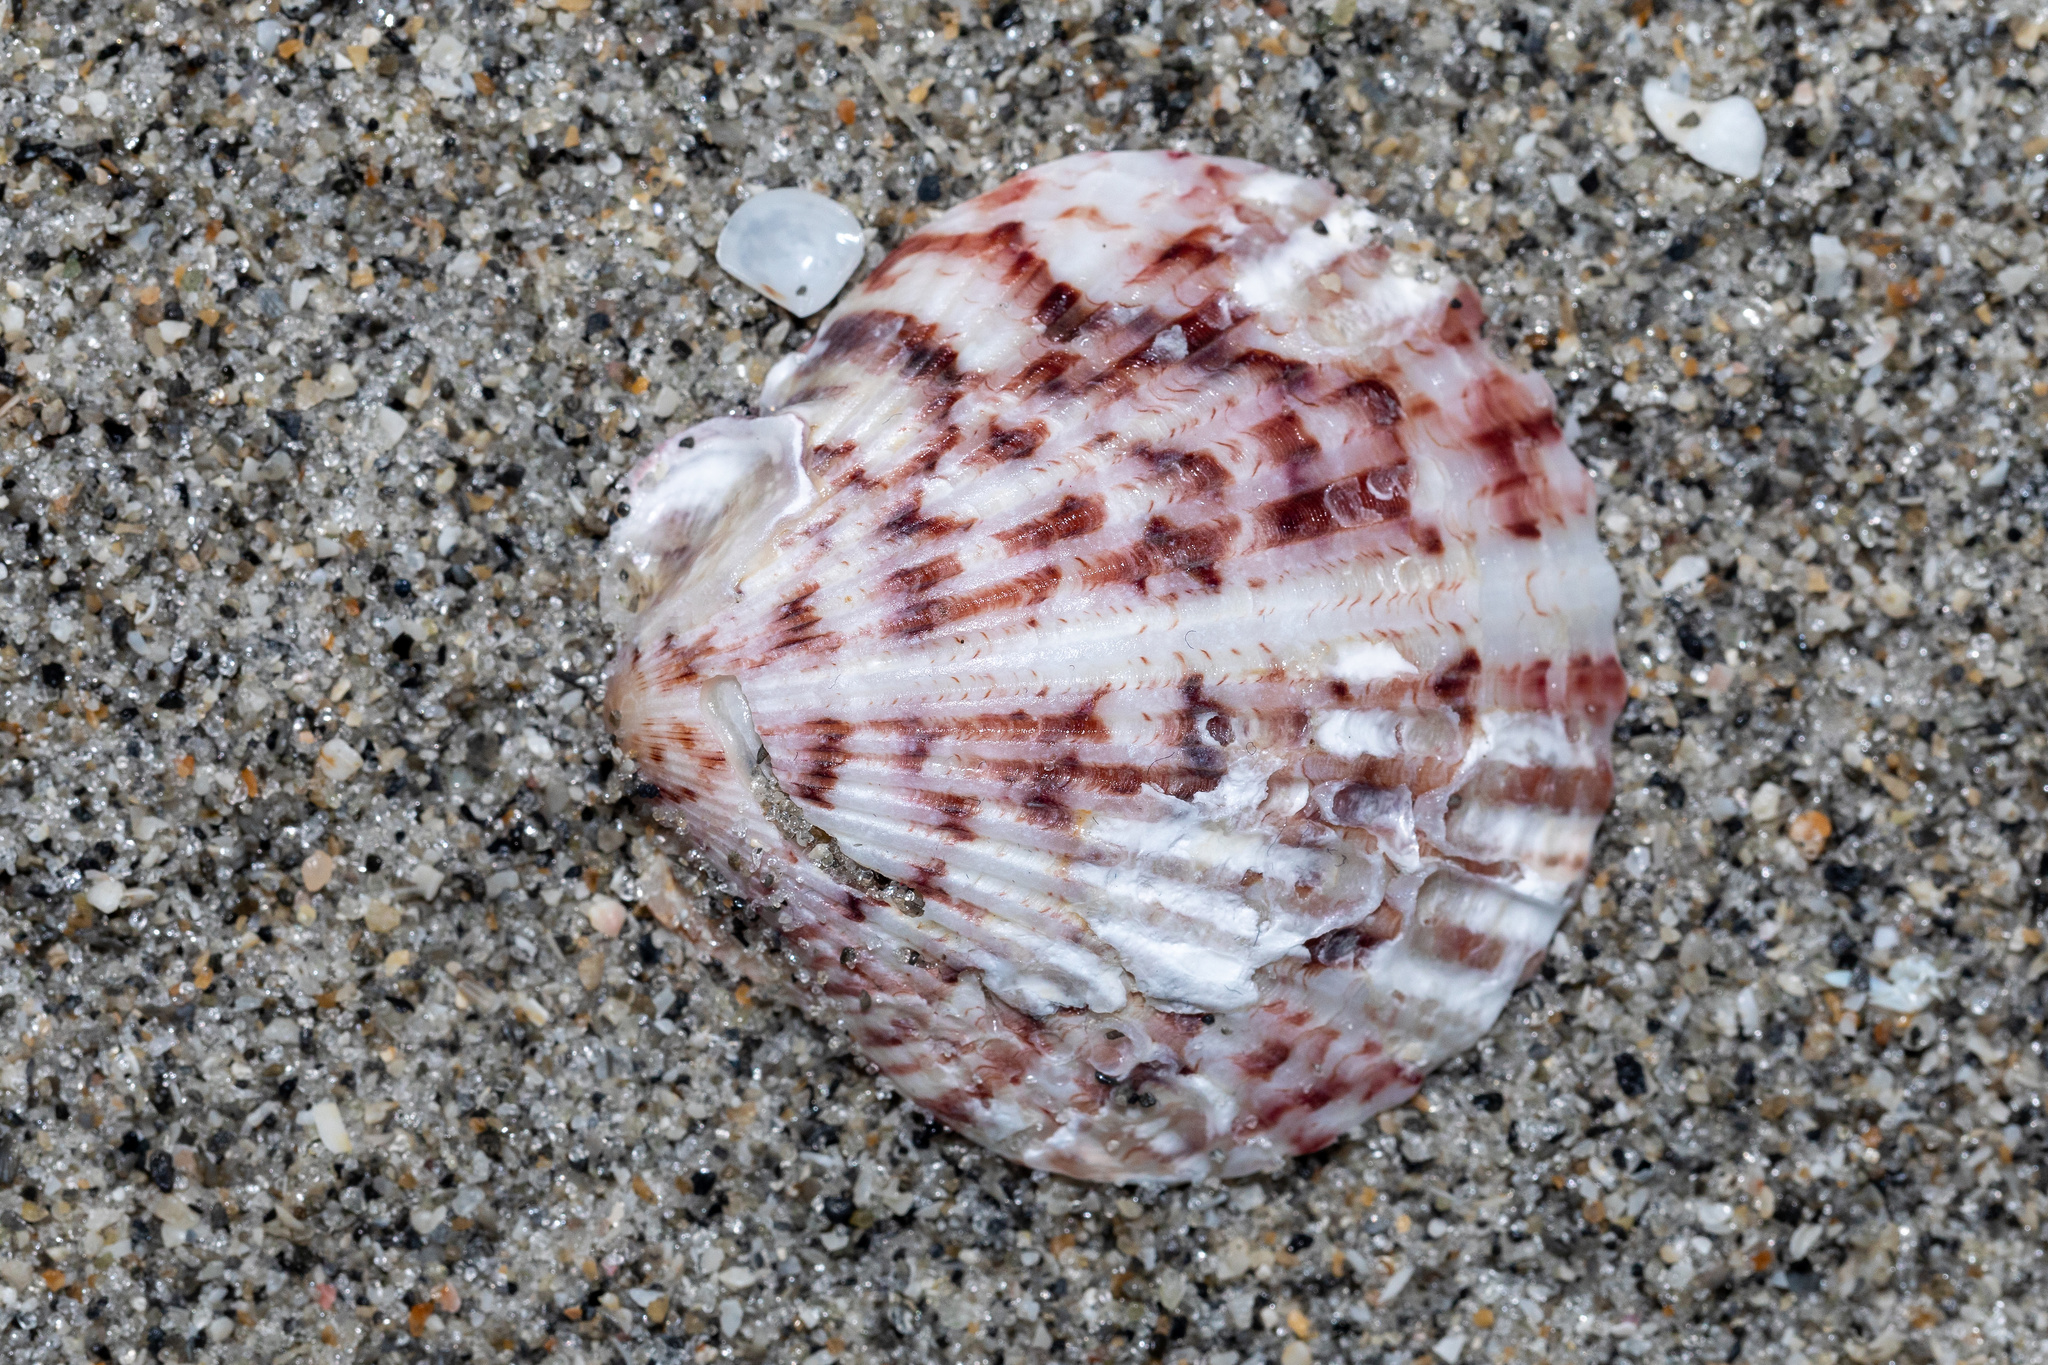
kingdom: Animalia
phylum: Mollusca
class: Bivalvia
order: Pectinida
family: Pectinidae
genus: Argopecten
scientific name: Argopecten gibbus
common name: Atlantic calico scallop
